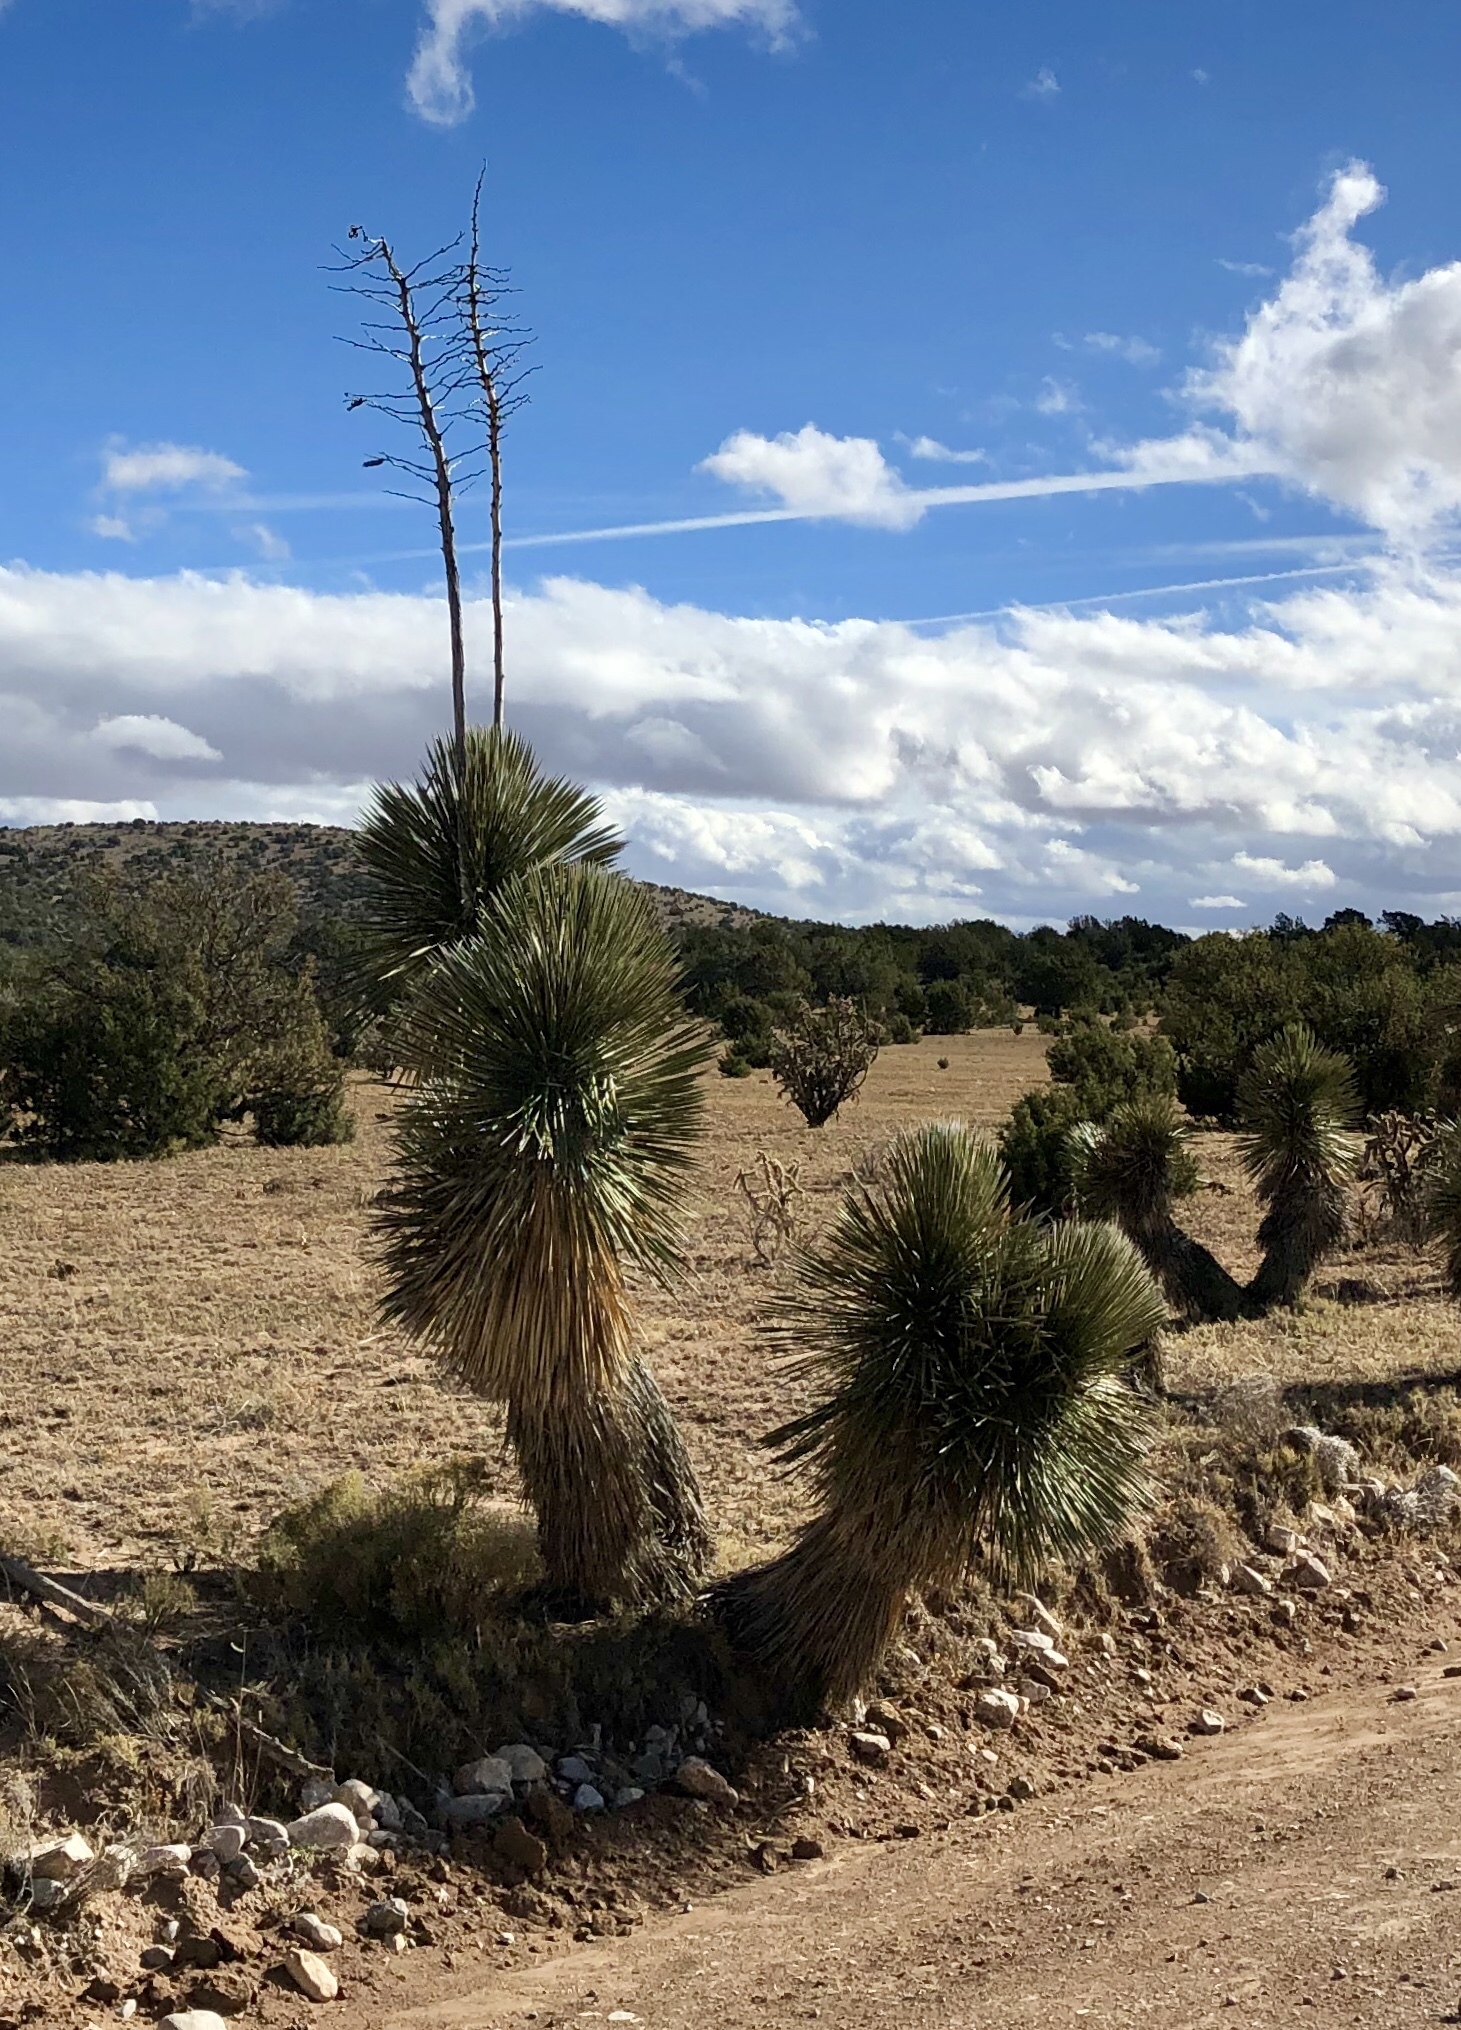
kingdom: Plantae
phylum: Tracheophyta
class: Liliopsida
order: Asparagales
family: Asparagaceae
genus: Yucca
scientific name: Yucca elata
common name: Palmella
